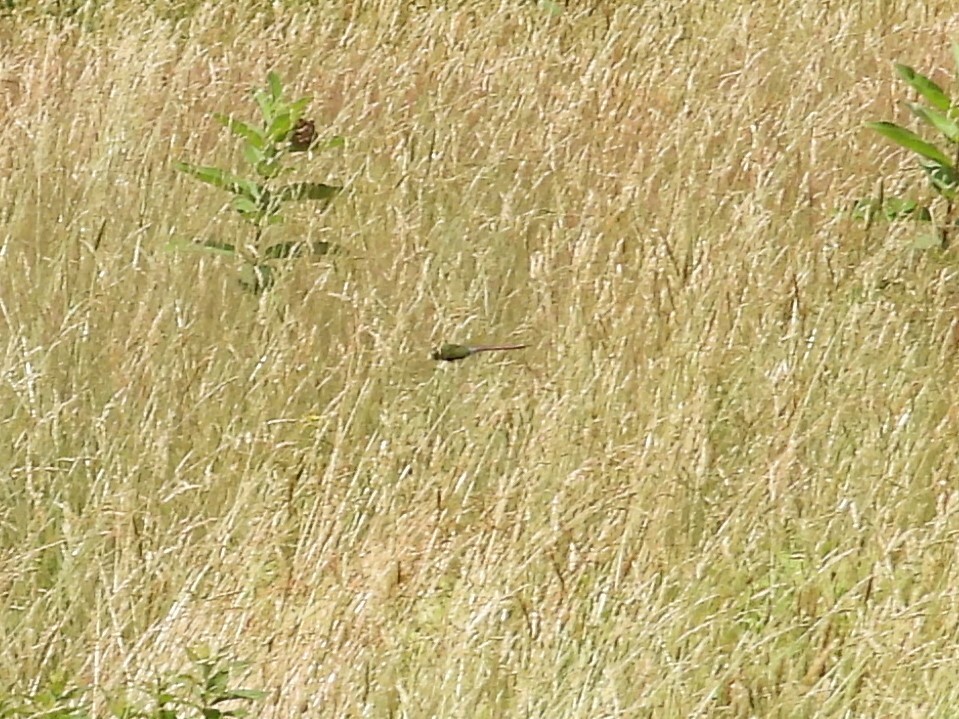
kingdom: Animalia
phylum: Arthropoda
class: Insecta
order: Odonata
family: Aeshnidae
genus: Anax
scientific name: Anax junius
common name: Common green darner
